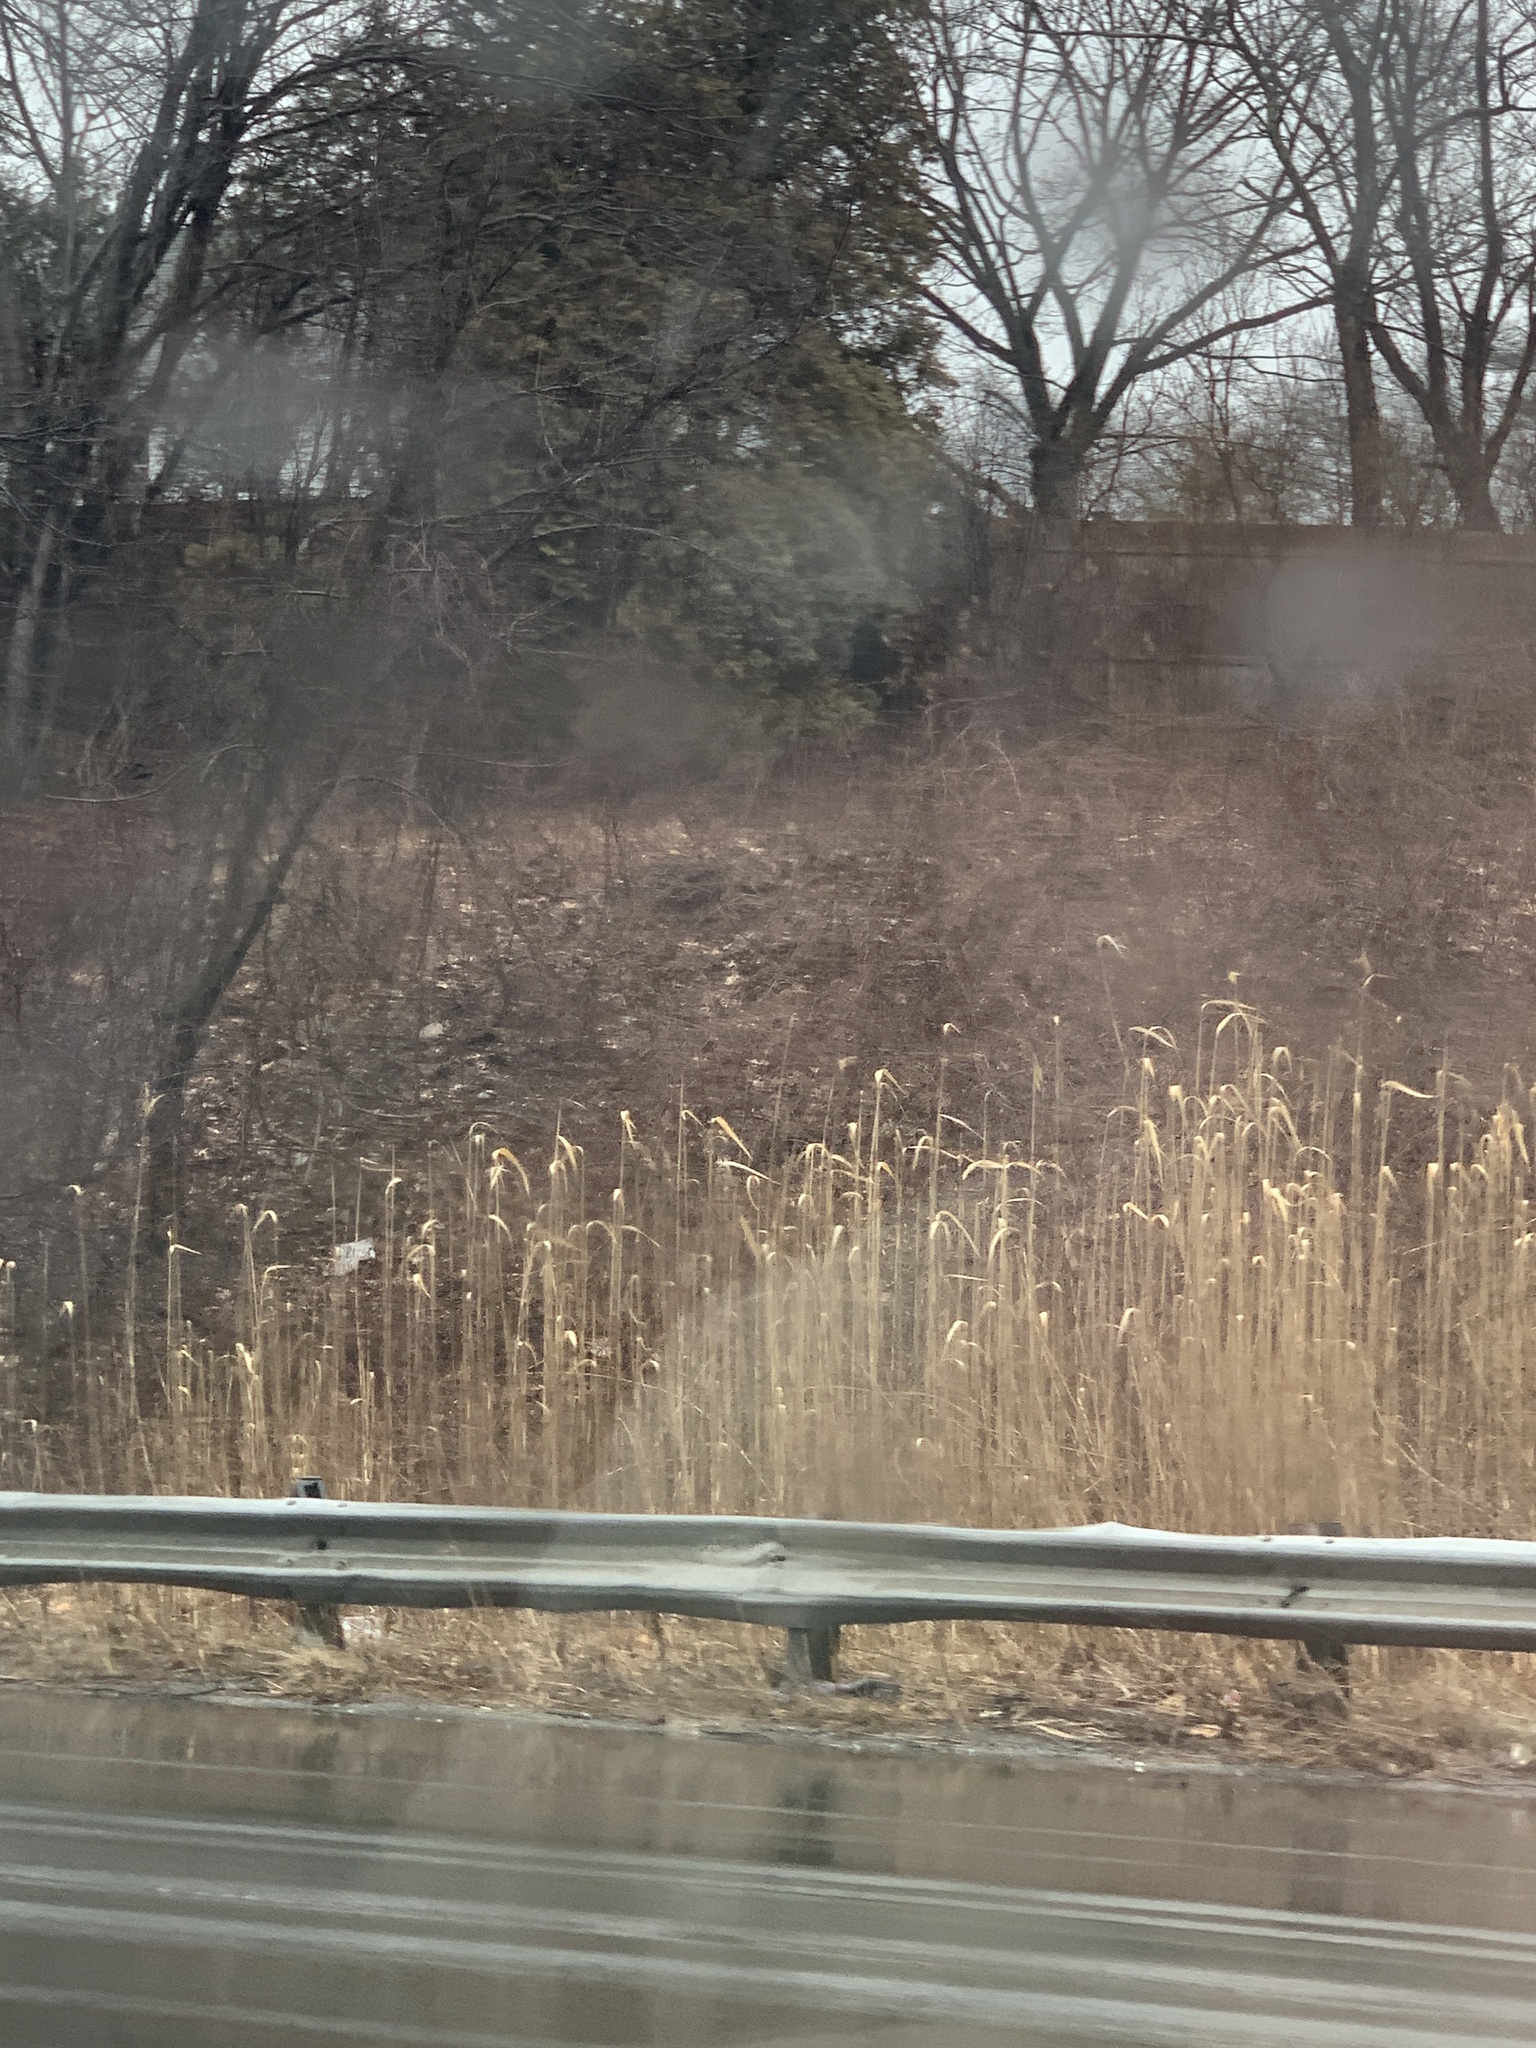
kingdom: Plantae
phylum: Tracheophyta
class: Liliopsida
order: Poales
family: Poaceae
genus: Phragmites
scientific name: Phragmites australis
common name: Common reed
